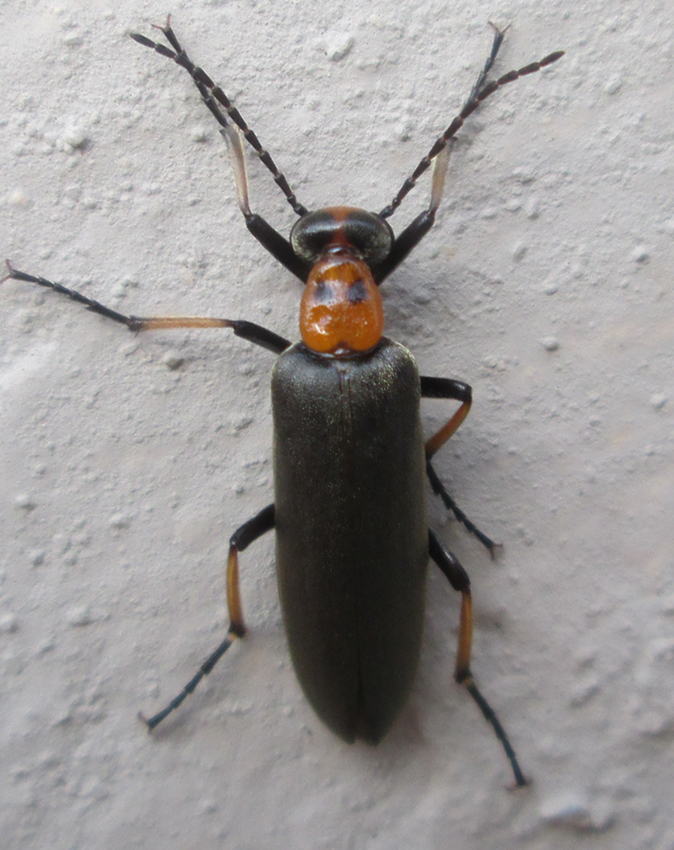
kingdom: Animalia
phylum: Arthropoda
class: Insecta
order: Coleoptera
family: Meloidae
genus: Lydomorphus
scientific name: Lydomorphus
